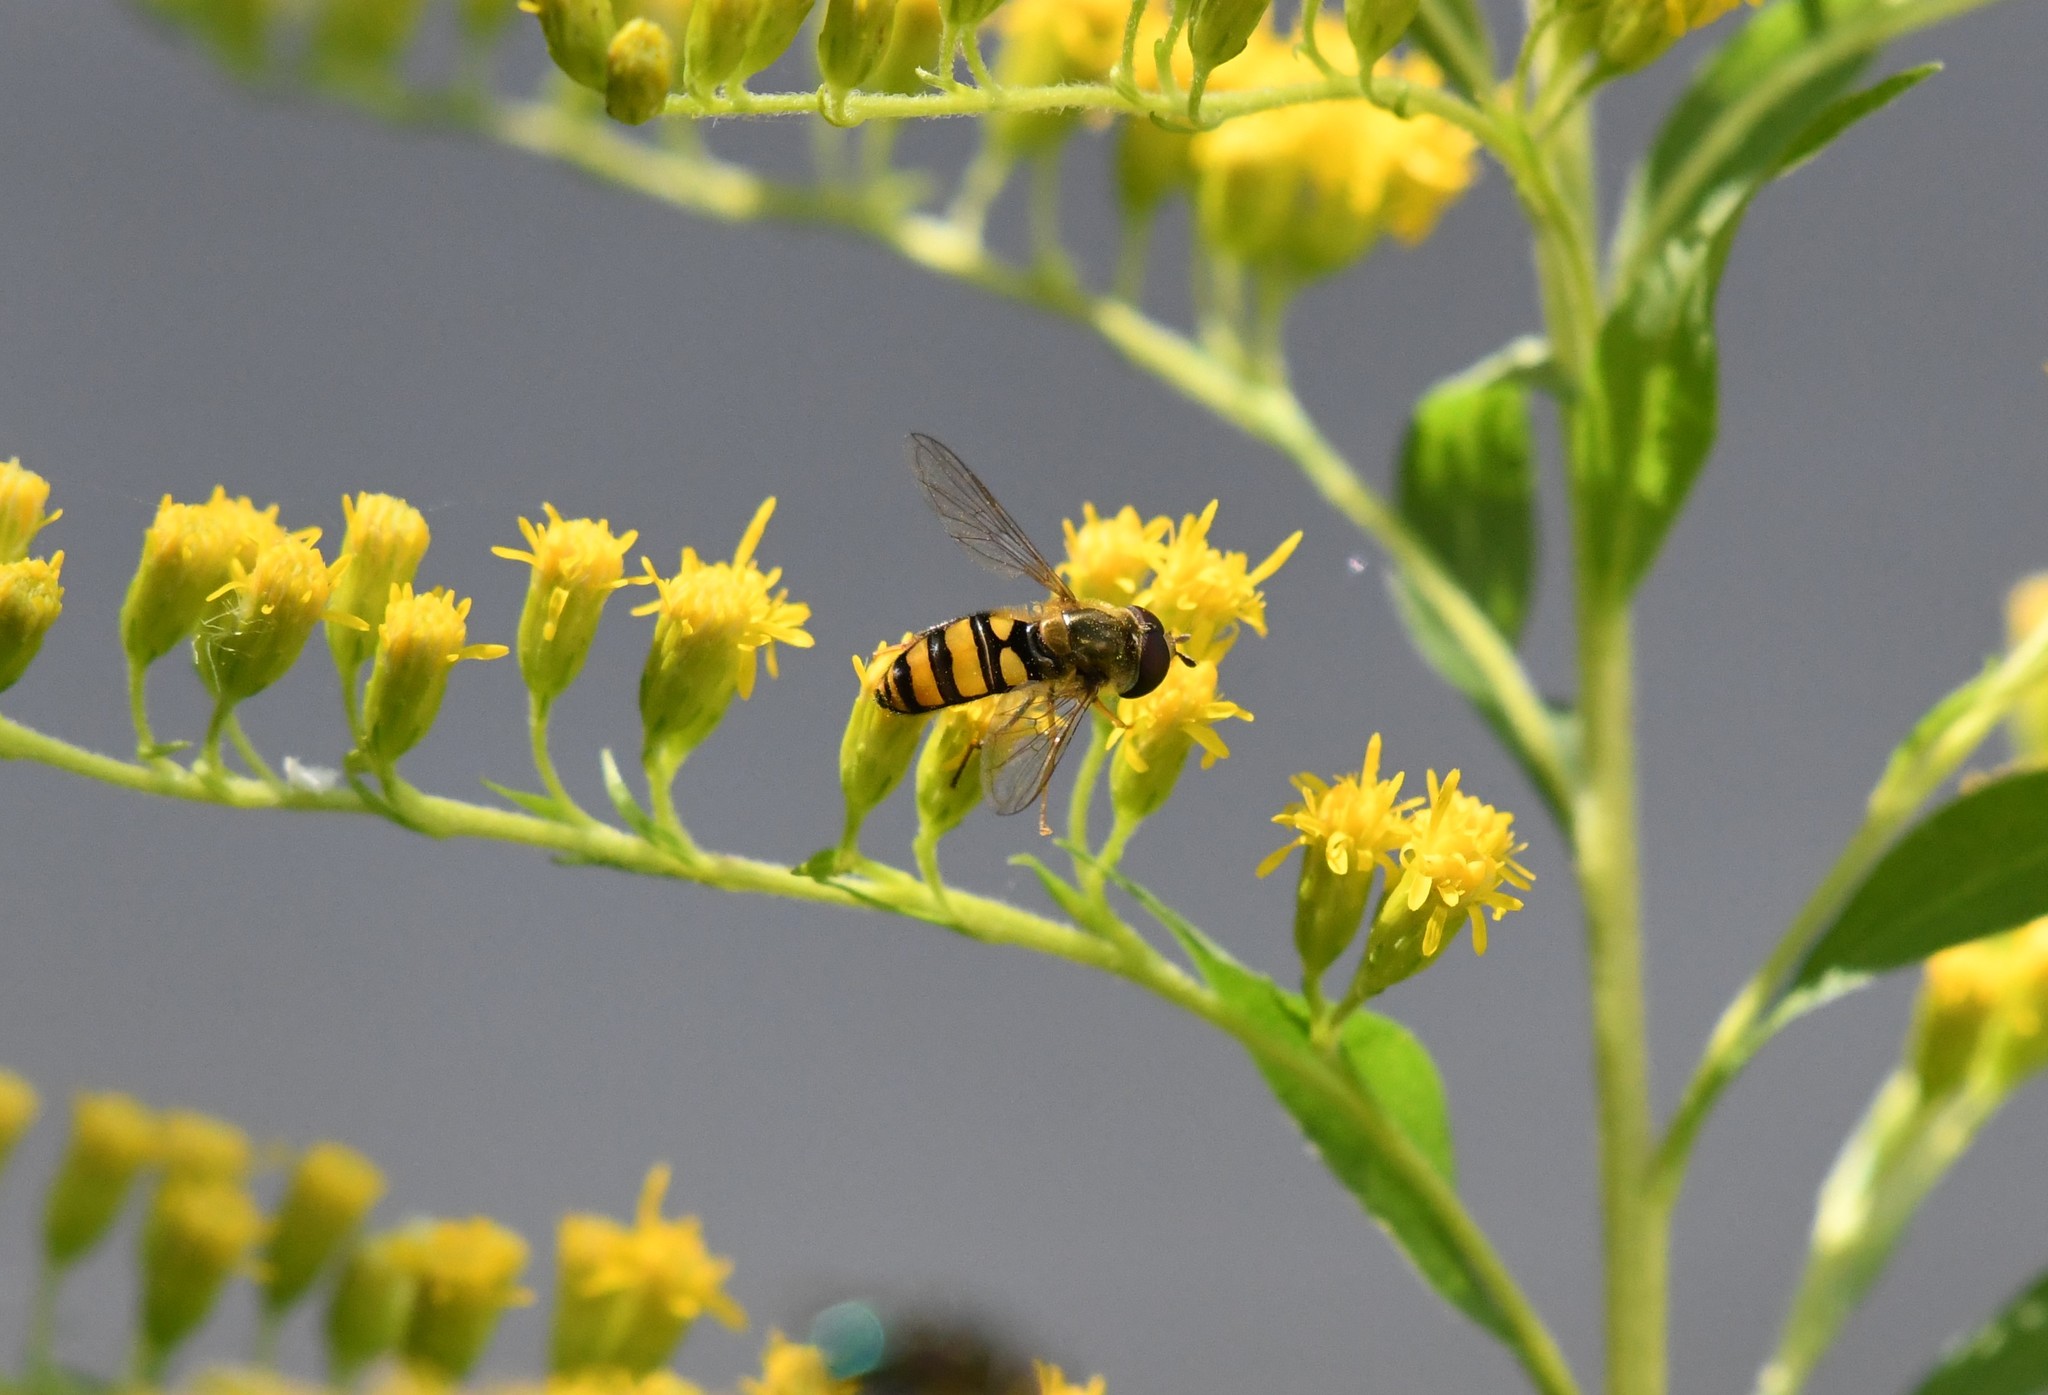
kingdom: Animalia
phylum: Arthropoda
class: Insecta
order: Diptera
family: Syrphidae
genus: Eupeodes
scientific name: Eupeodes
